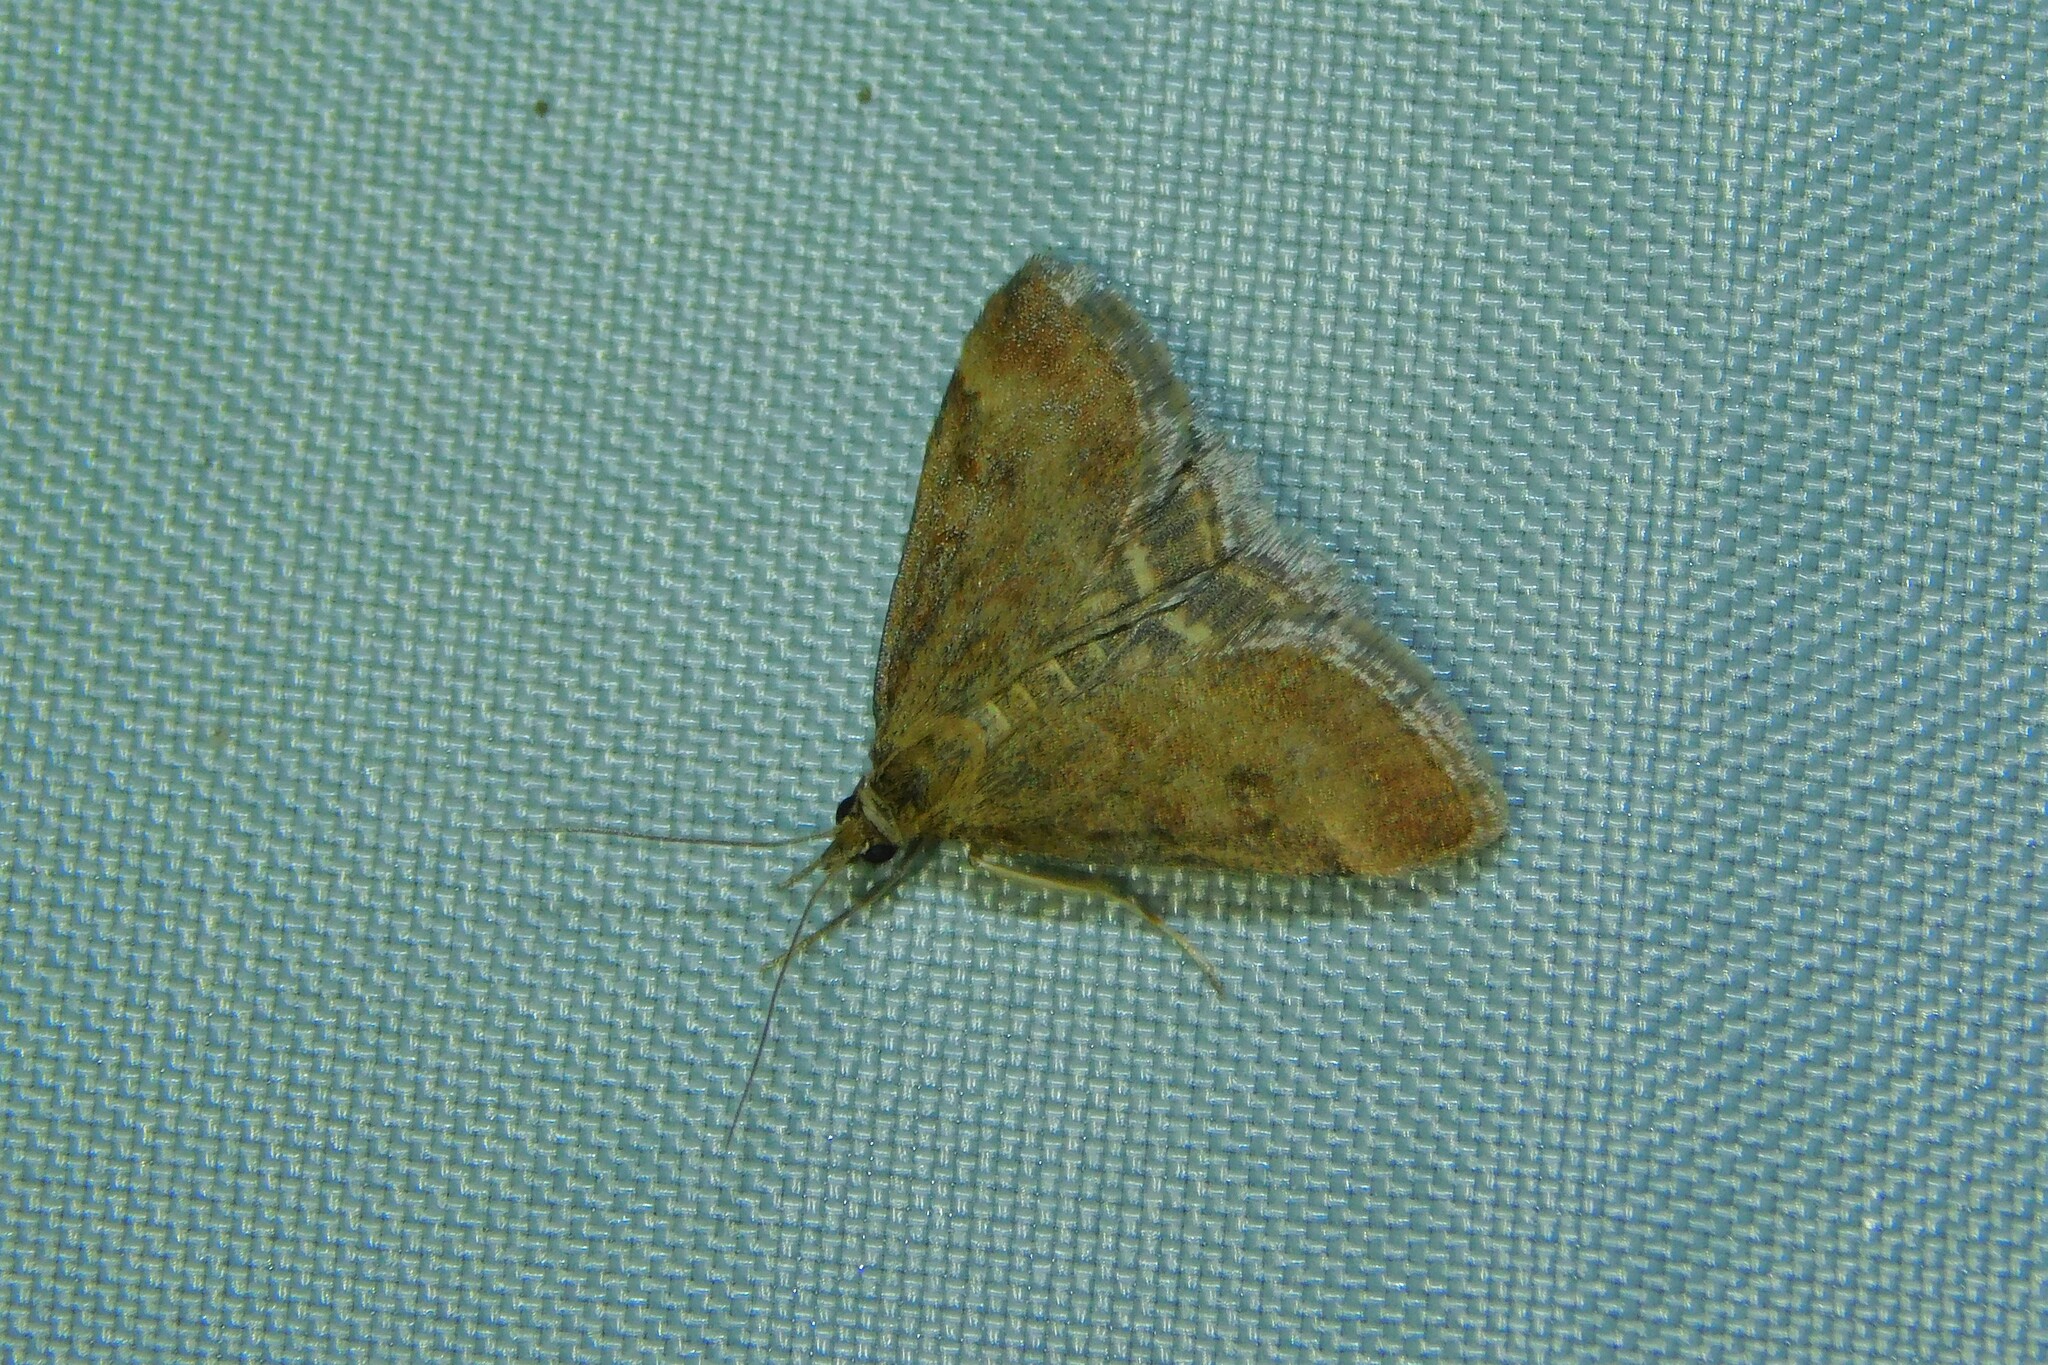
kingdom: Animalia
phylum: Arthropoda
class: Insecta
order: Lepidoptera
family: Crambidae
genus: Pyrausta
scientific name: Pyrausta despicata
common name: Straw-barred pearl
